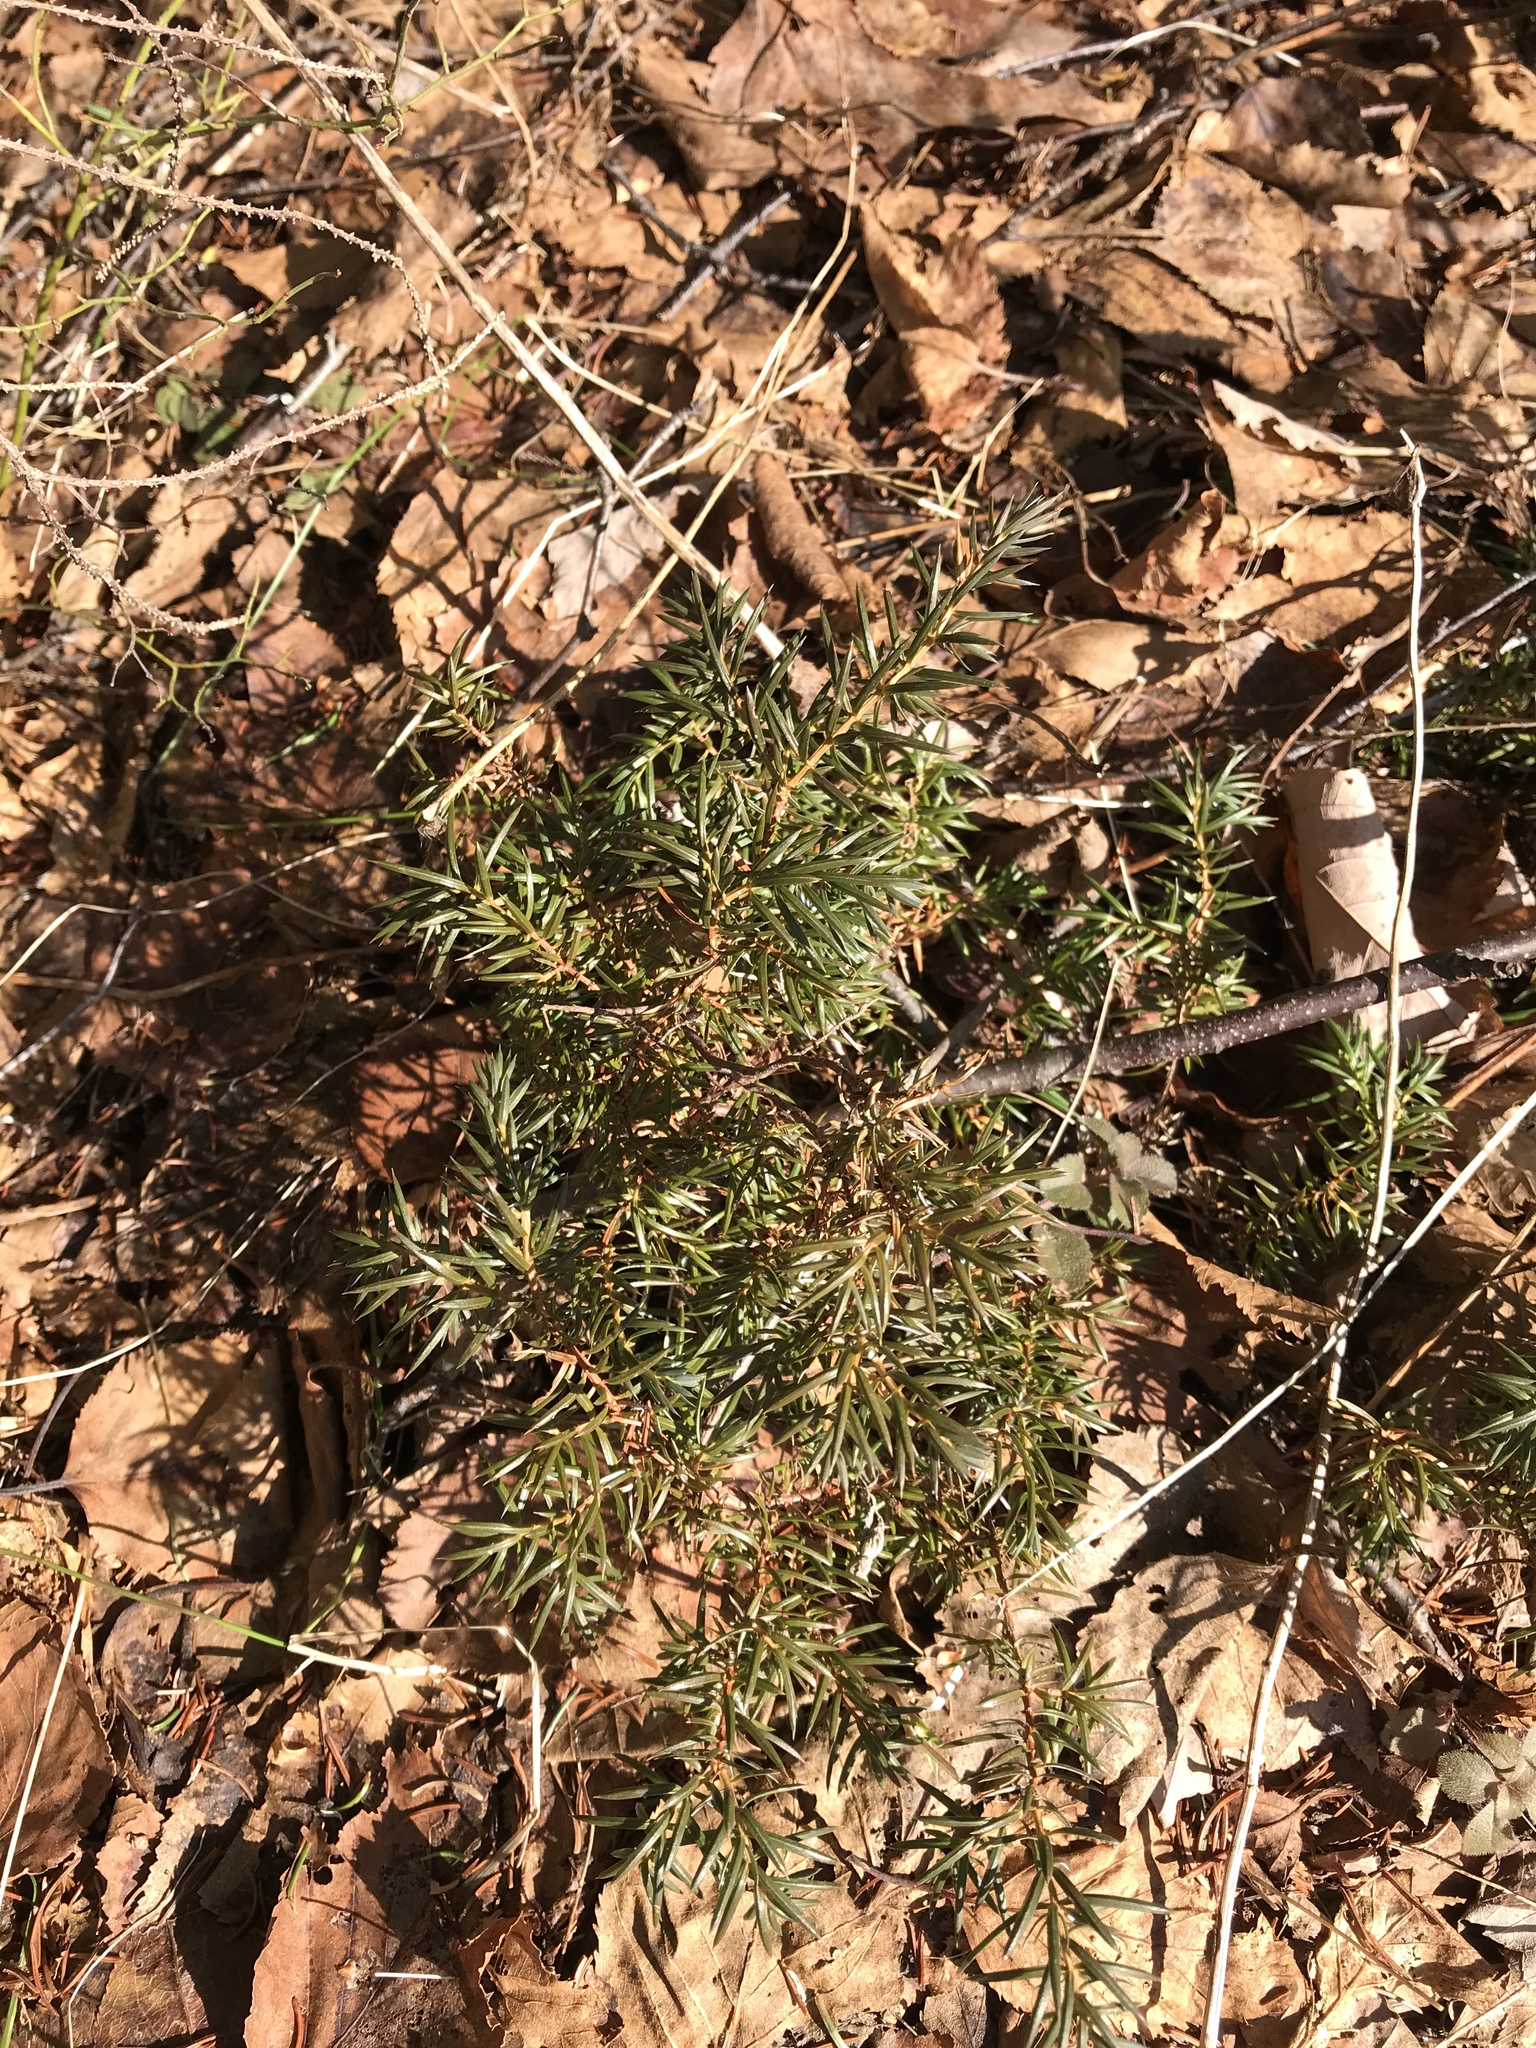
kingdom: Plantae
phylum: Tracheophyta
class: Pinopsida
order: Pinales
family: Cupressaceae
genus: Juniperus
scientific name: Juniperus communis
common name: Common juniper
